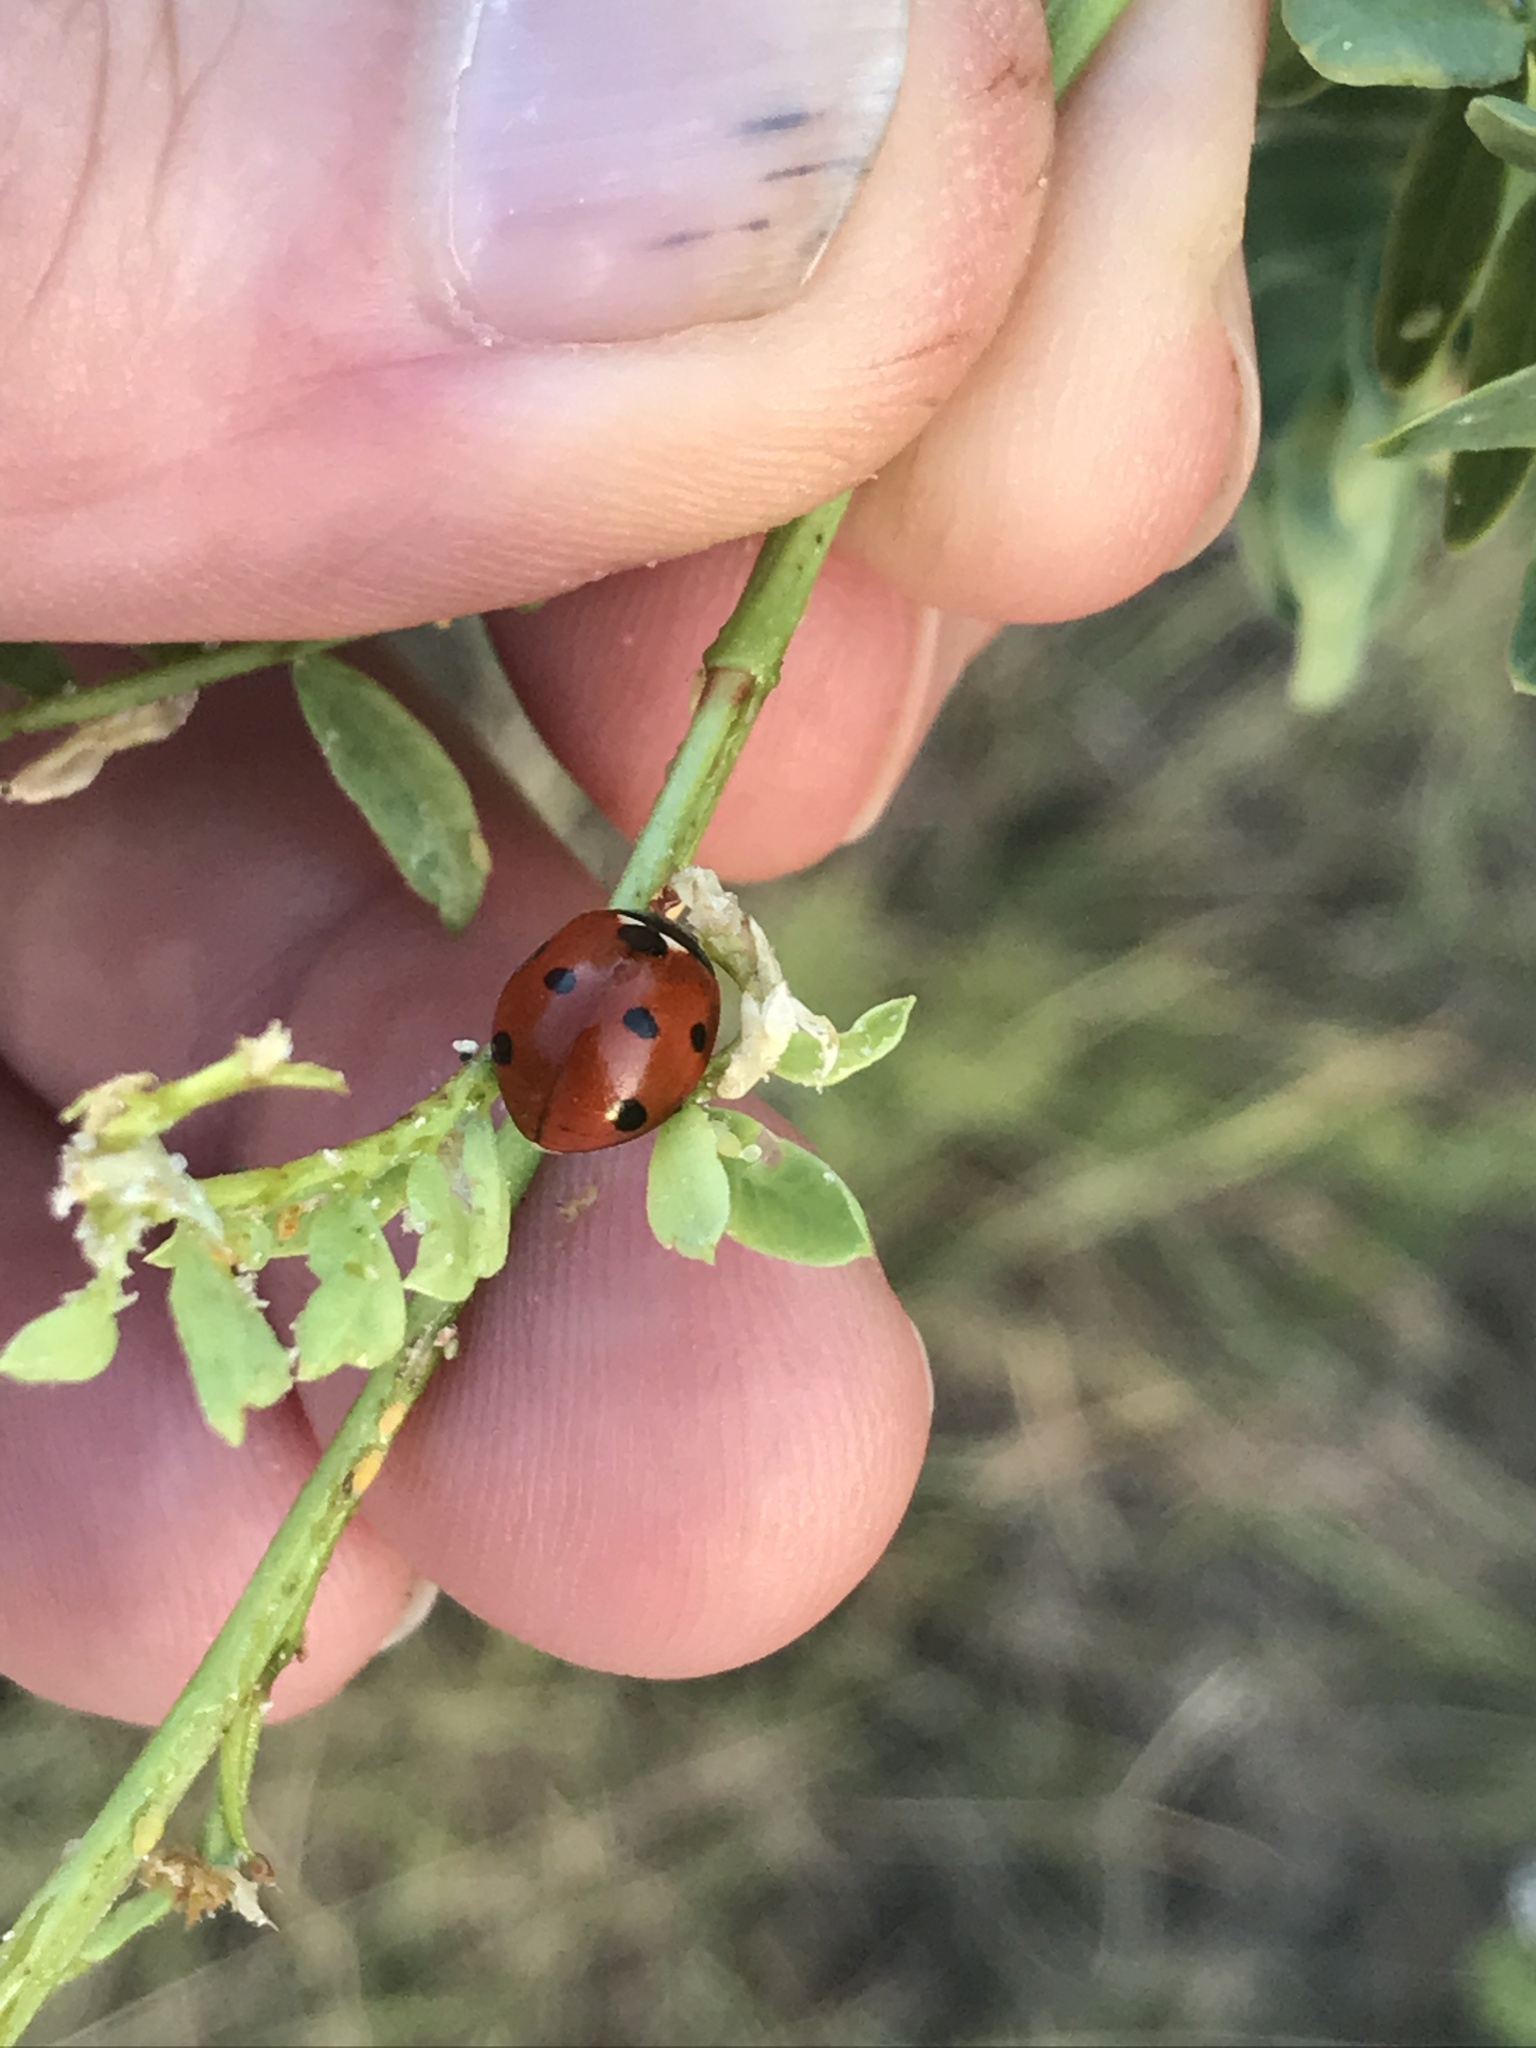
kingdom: Animalia
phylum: Arthropoda
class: Insecta
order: Coleoptera
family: Coccinellidae
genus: Coccinella
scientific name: Coccinella septempunctata
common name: Sevenspotted lady beetle
